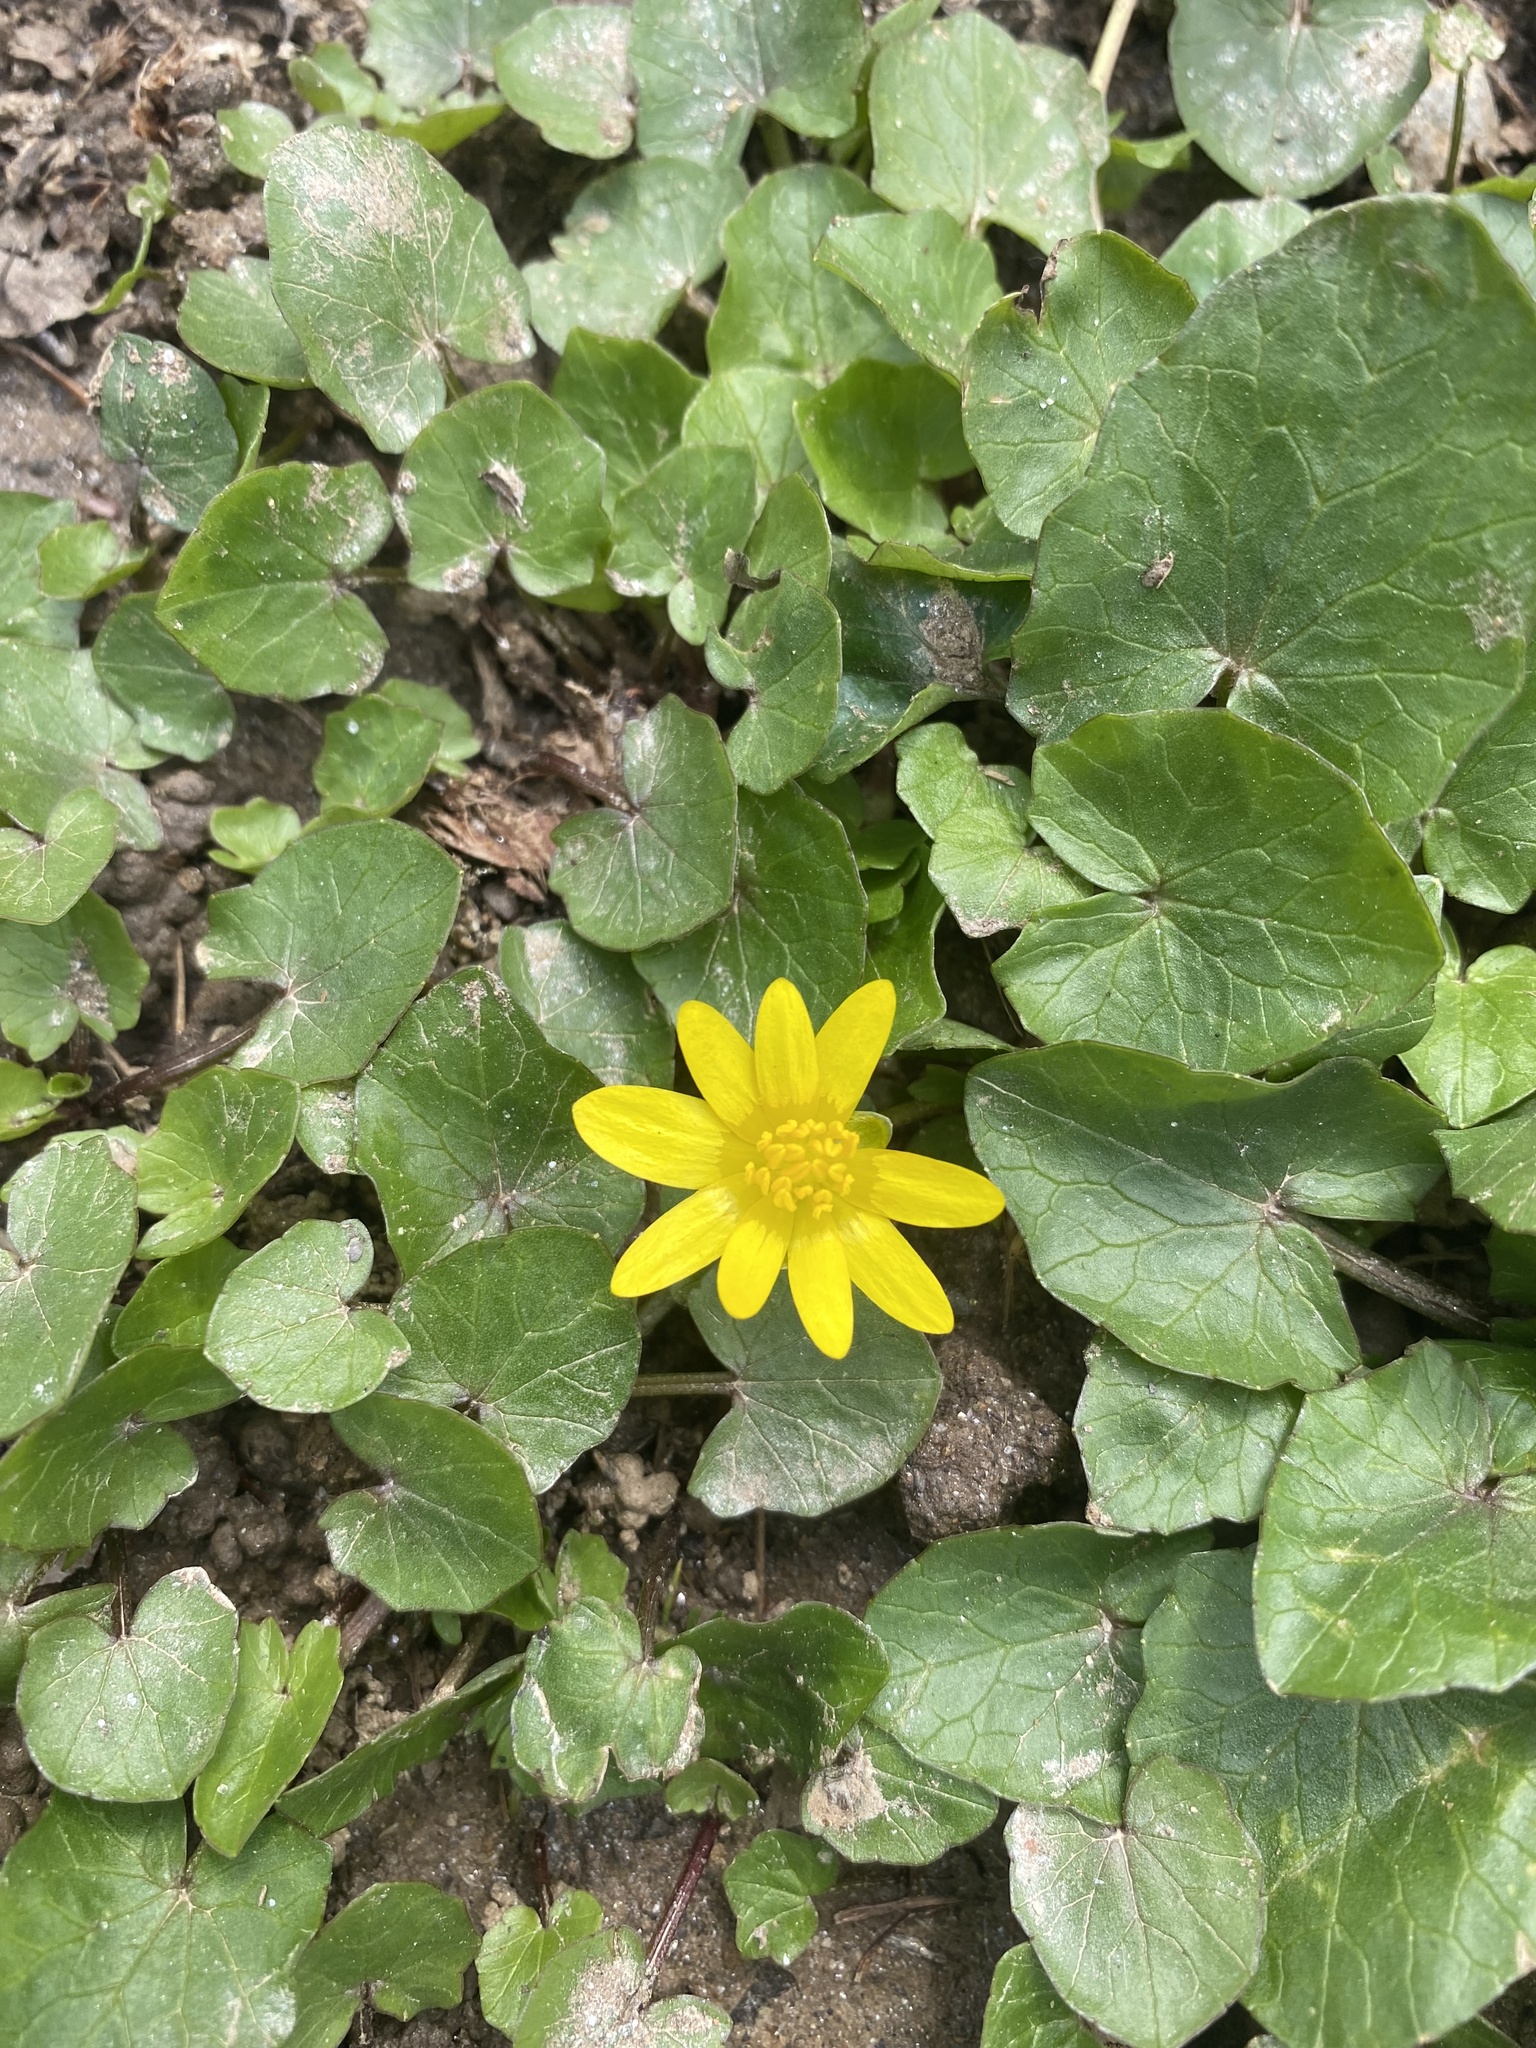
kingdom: Plantae
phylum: Tracheophyta
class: Magnoliopsida
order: Ranunculales
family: Ranunculaceae
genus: Ficaria
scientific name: Ficaria verna
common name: Lesser celandine
